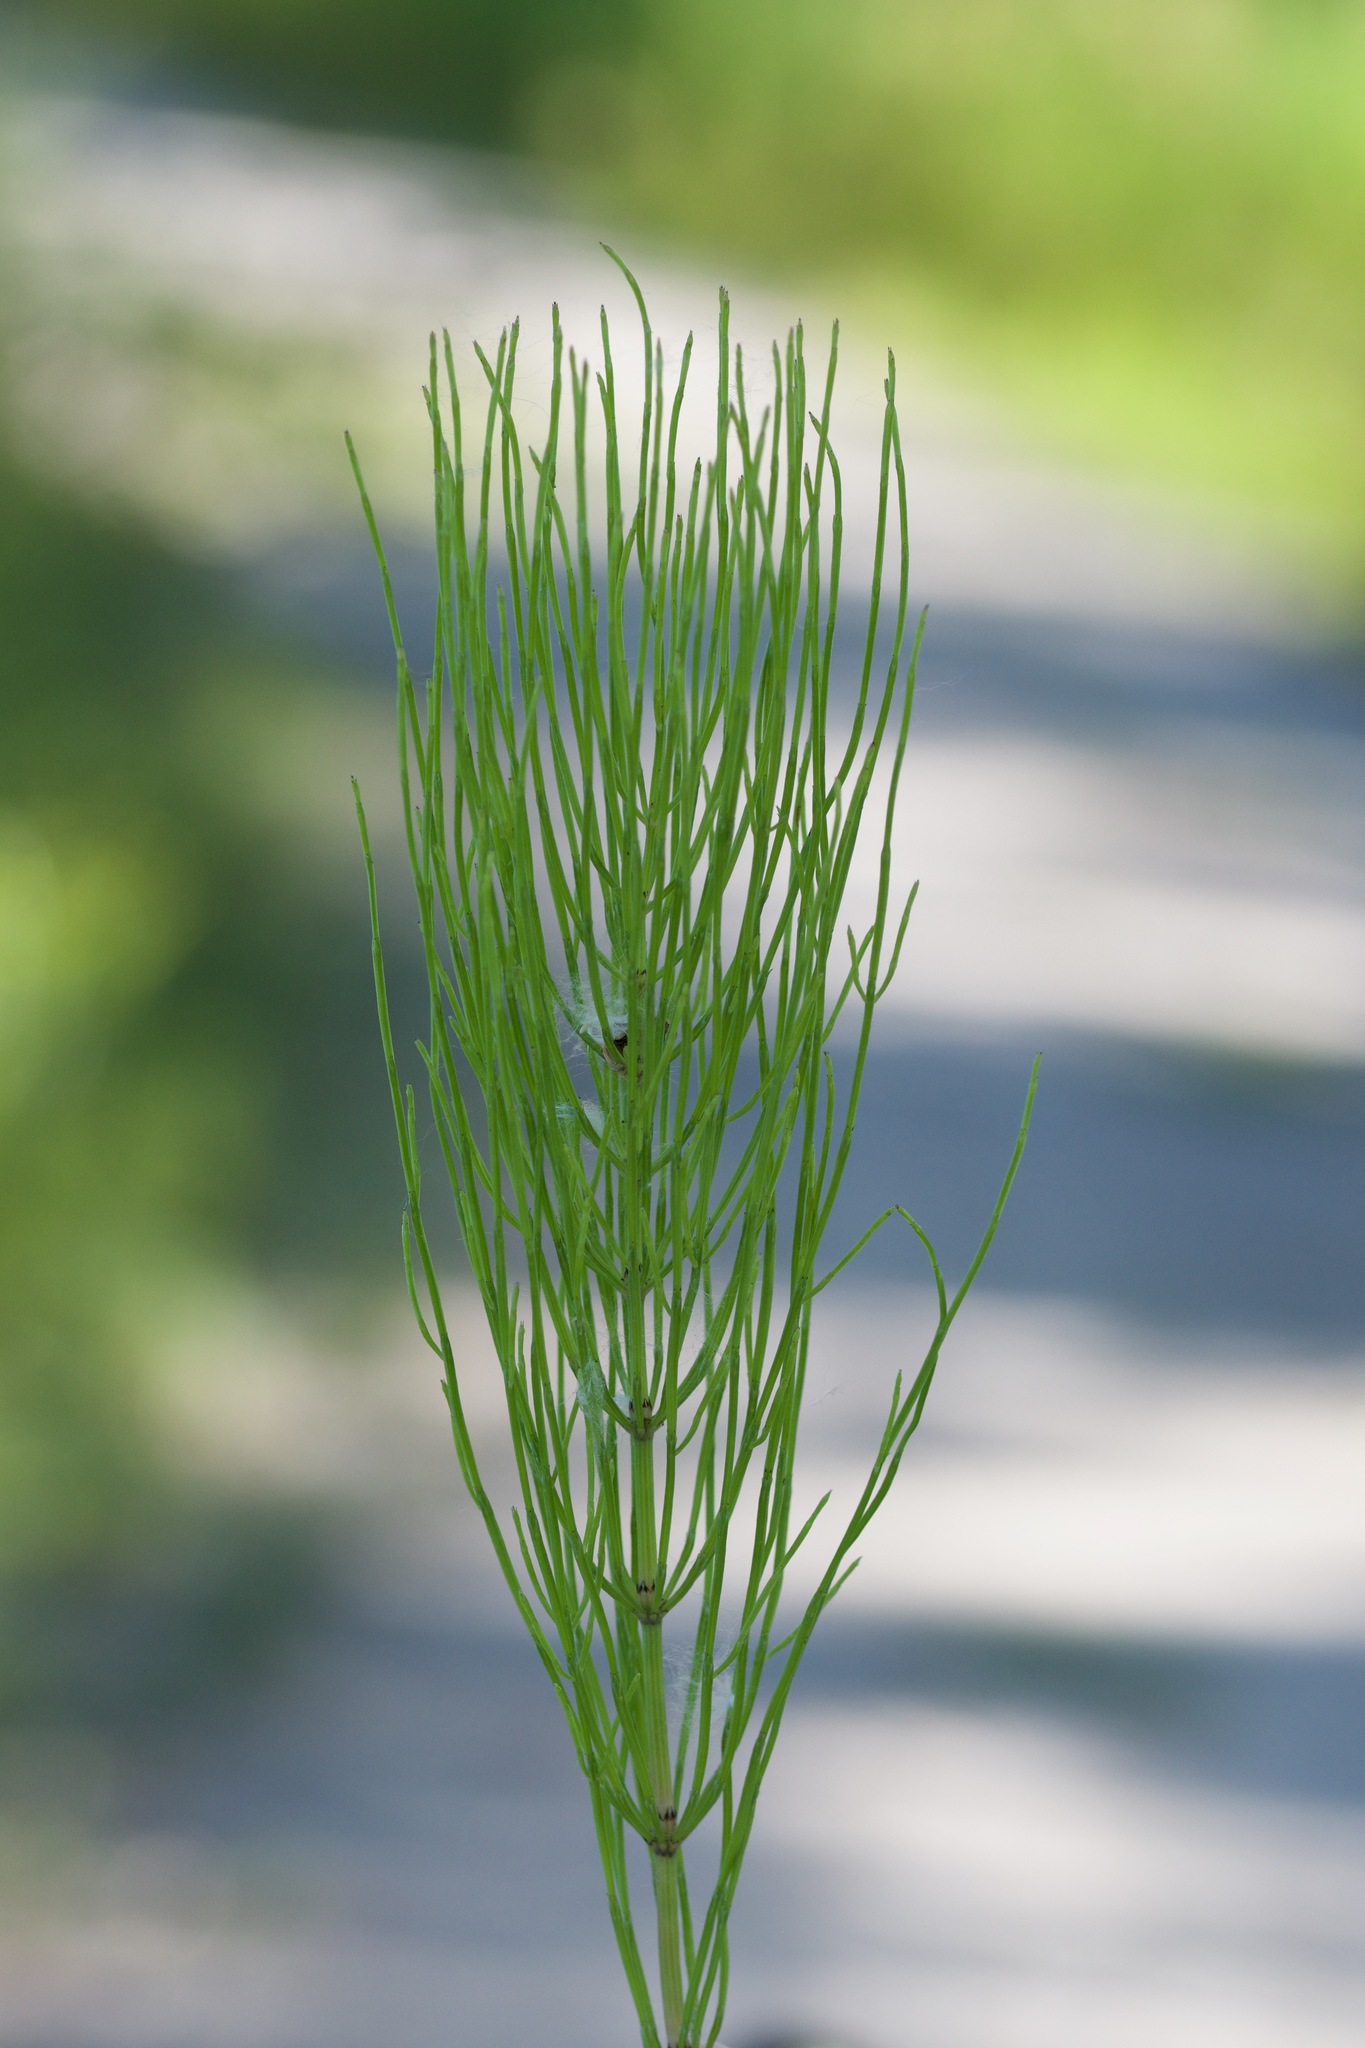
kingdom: Plantae
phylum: Tracheophyta
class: Polypodiopsida
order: Equisetales
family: Equisetaceae
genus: Equisetum
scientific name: Equisetum arvense
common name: Field horsetail
